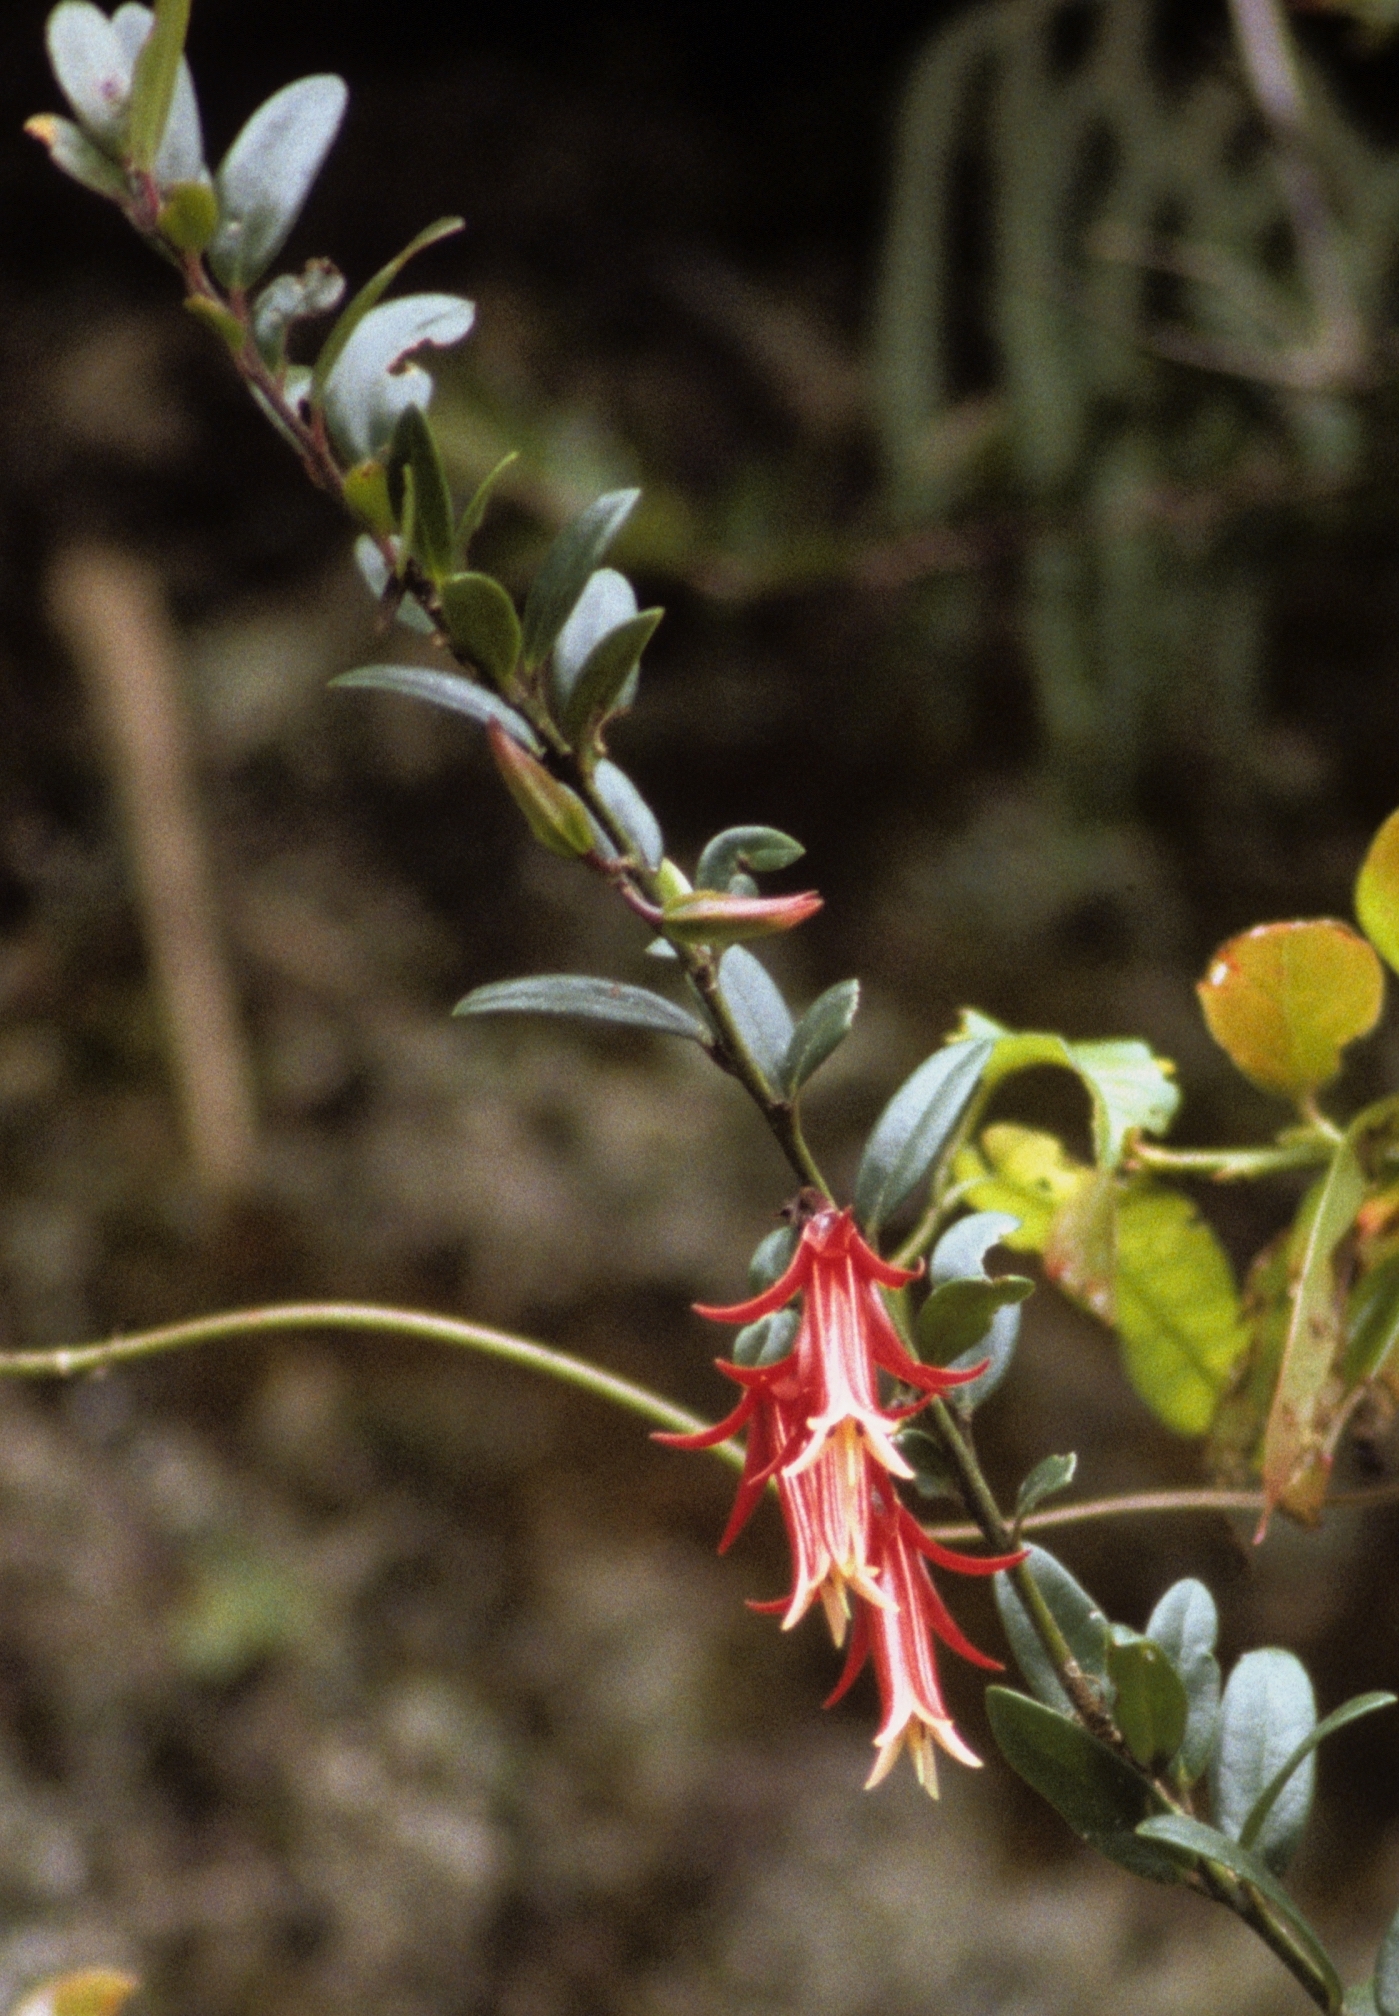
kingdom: Plantae
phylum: Tracheophyta
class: Magnoliopsida
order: Ericales
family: Ericaceae
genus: Ceratostema
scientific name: Ceratostema oellgaardii
